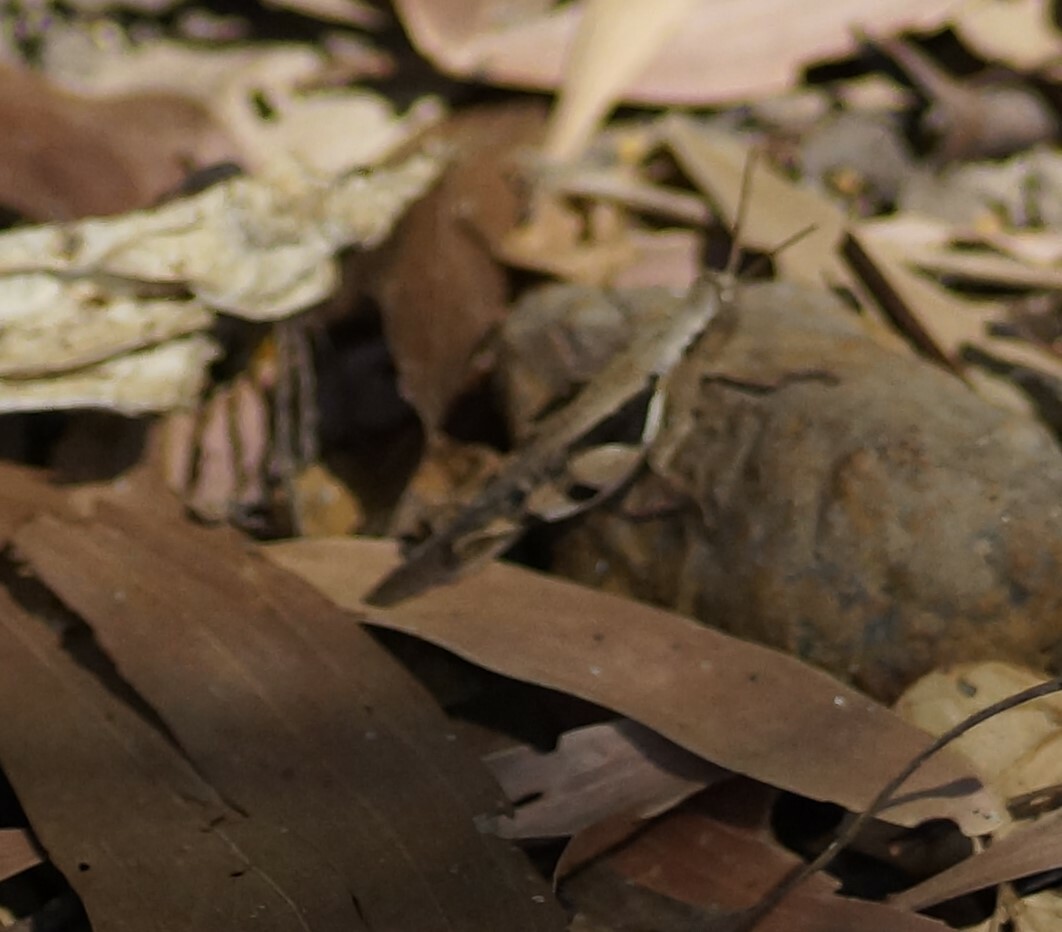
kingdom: Animalia
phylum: Arthropoda
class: Insecta
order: Orthoptera
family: Acrididae
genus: Stenocatantops
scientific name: Stenocatantops angustifrons
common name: Common tropical sharptail
